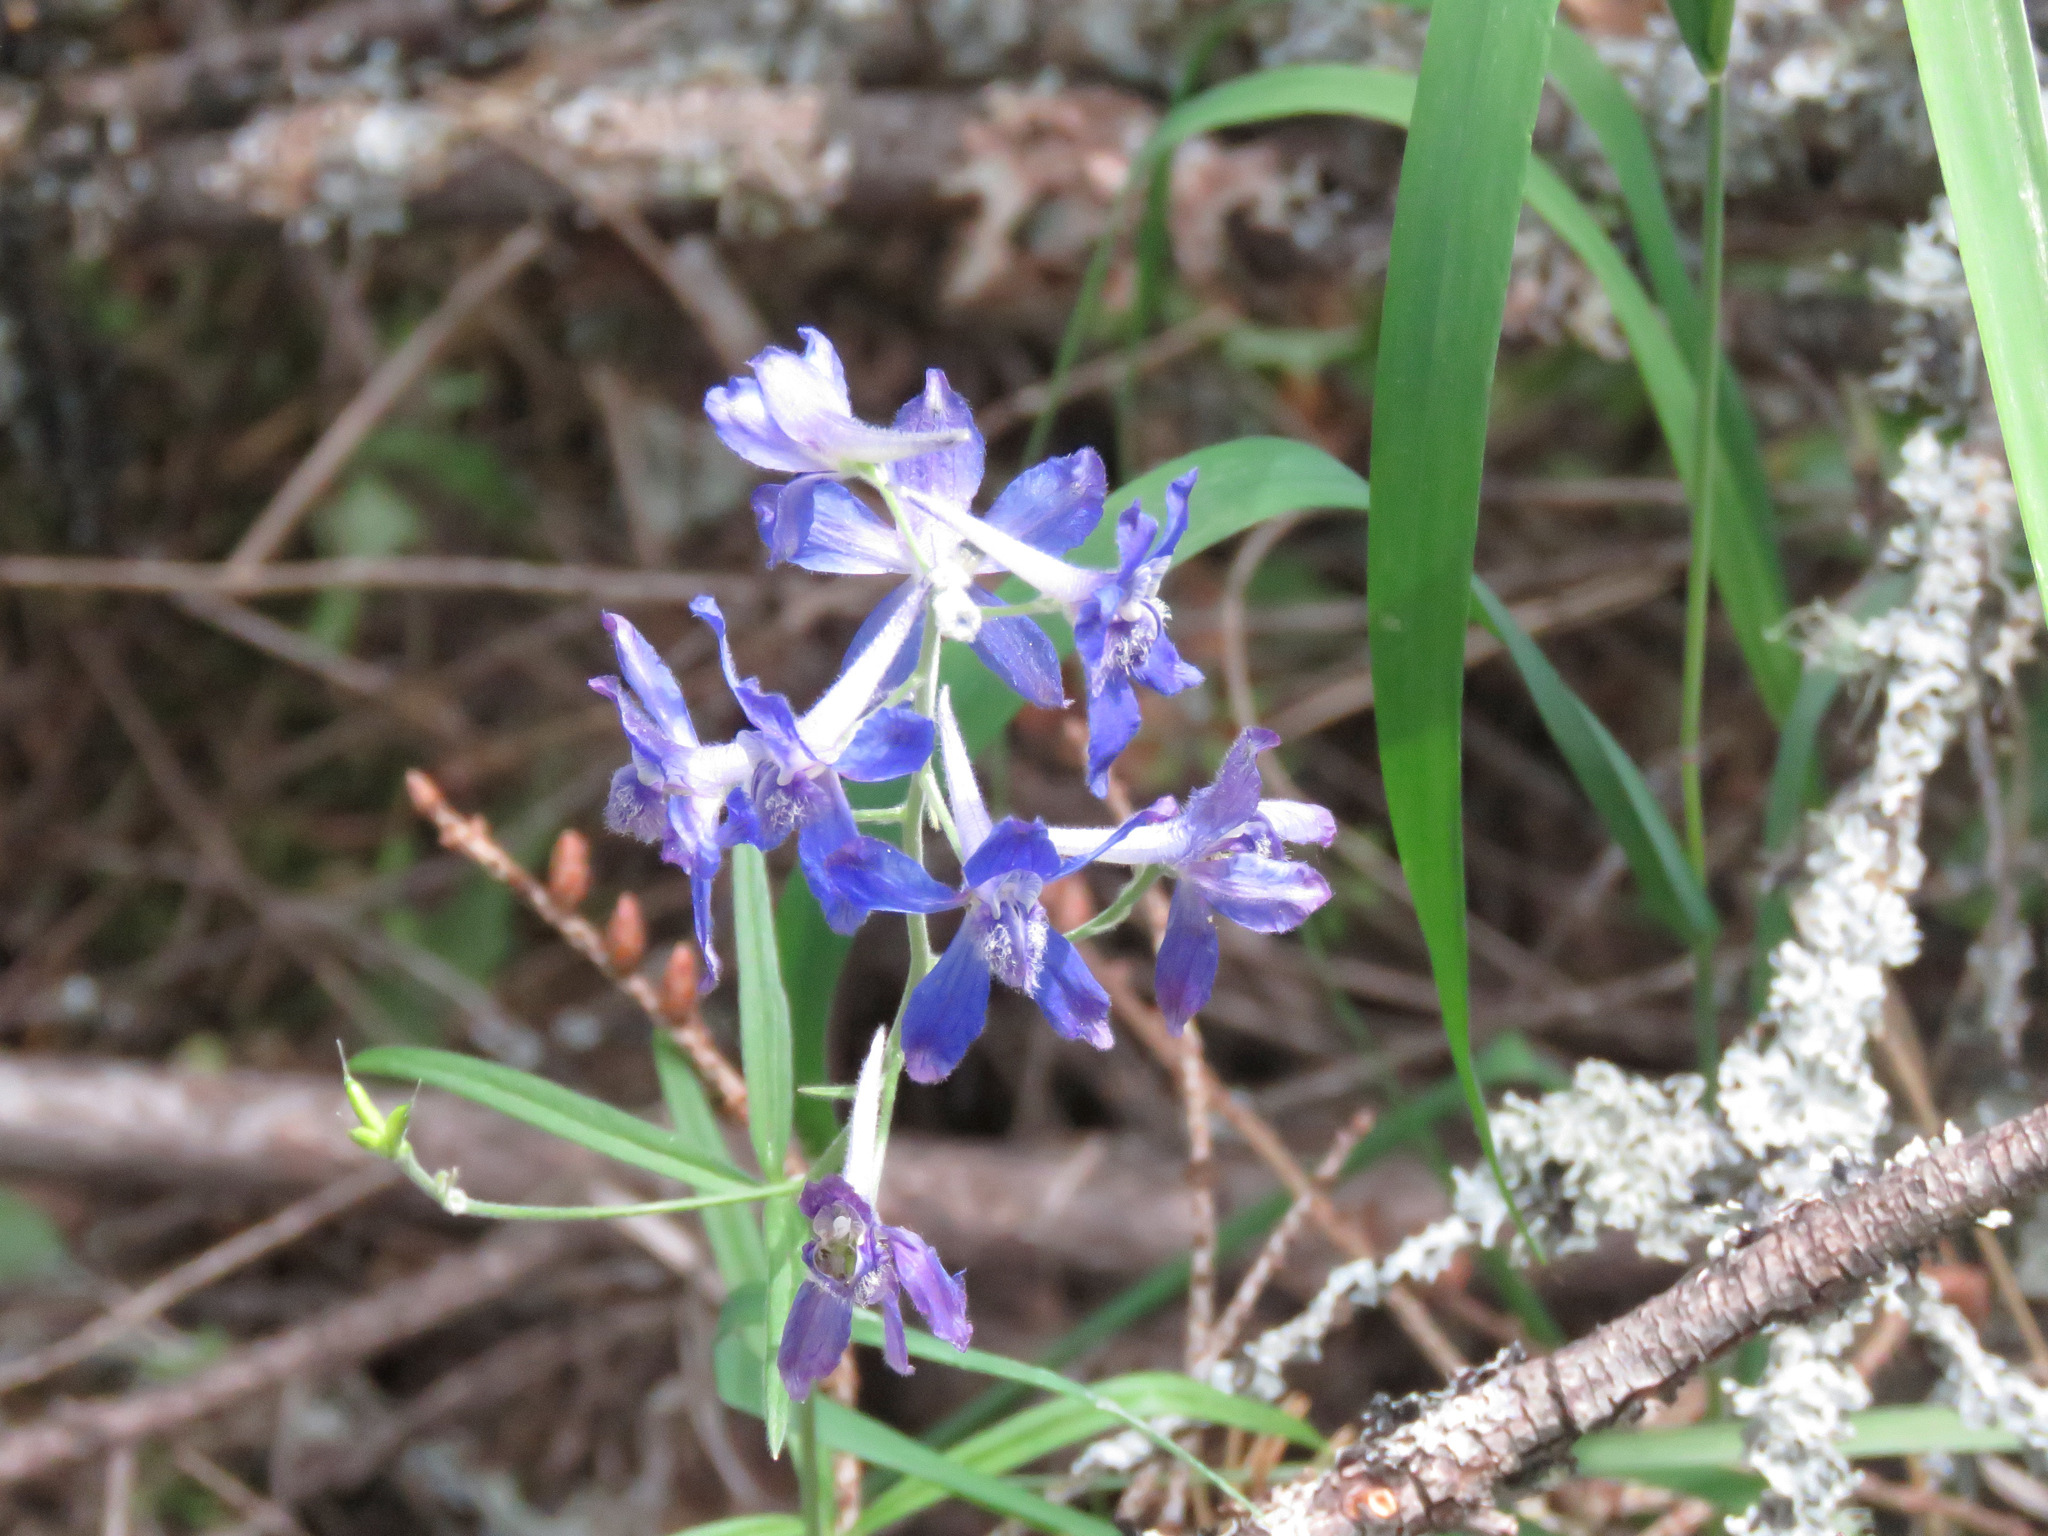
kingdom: Plantae
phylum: Tracheophyta
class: Magnoliopsida
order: Ranunculales
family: Ranunculaceae
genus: Delphinium
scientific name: Delphinium nuttallianum
